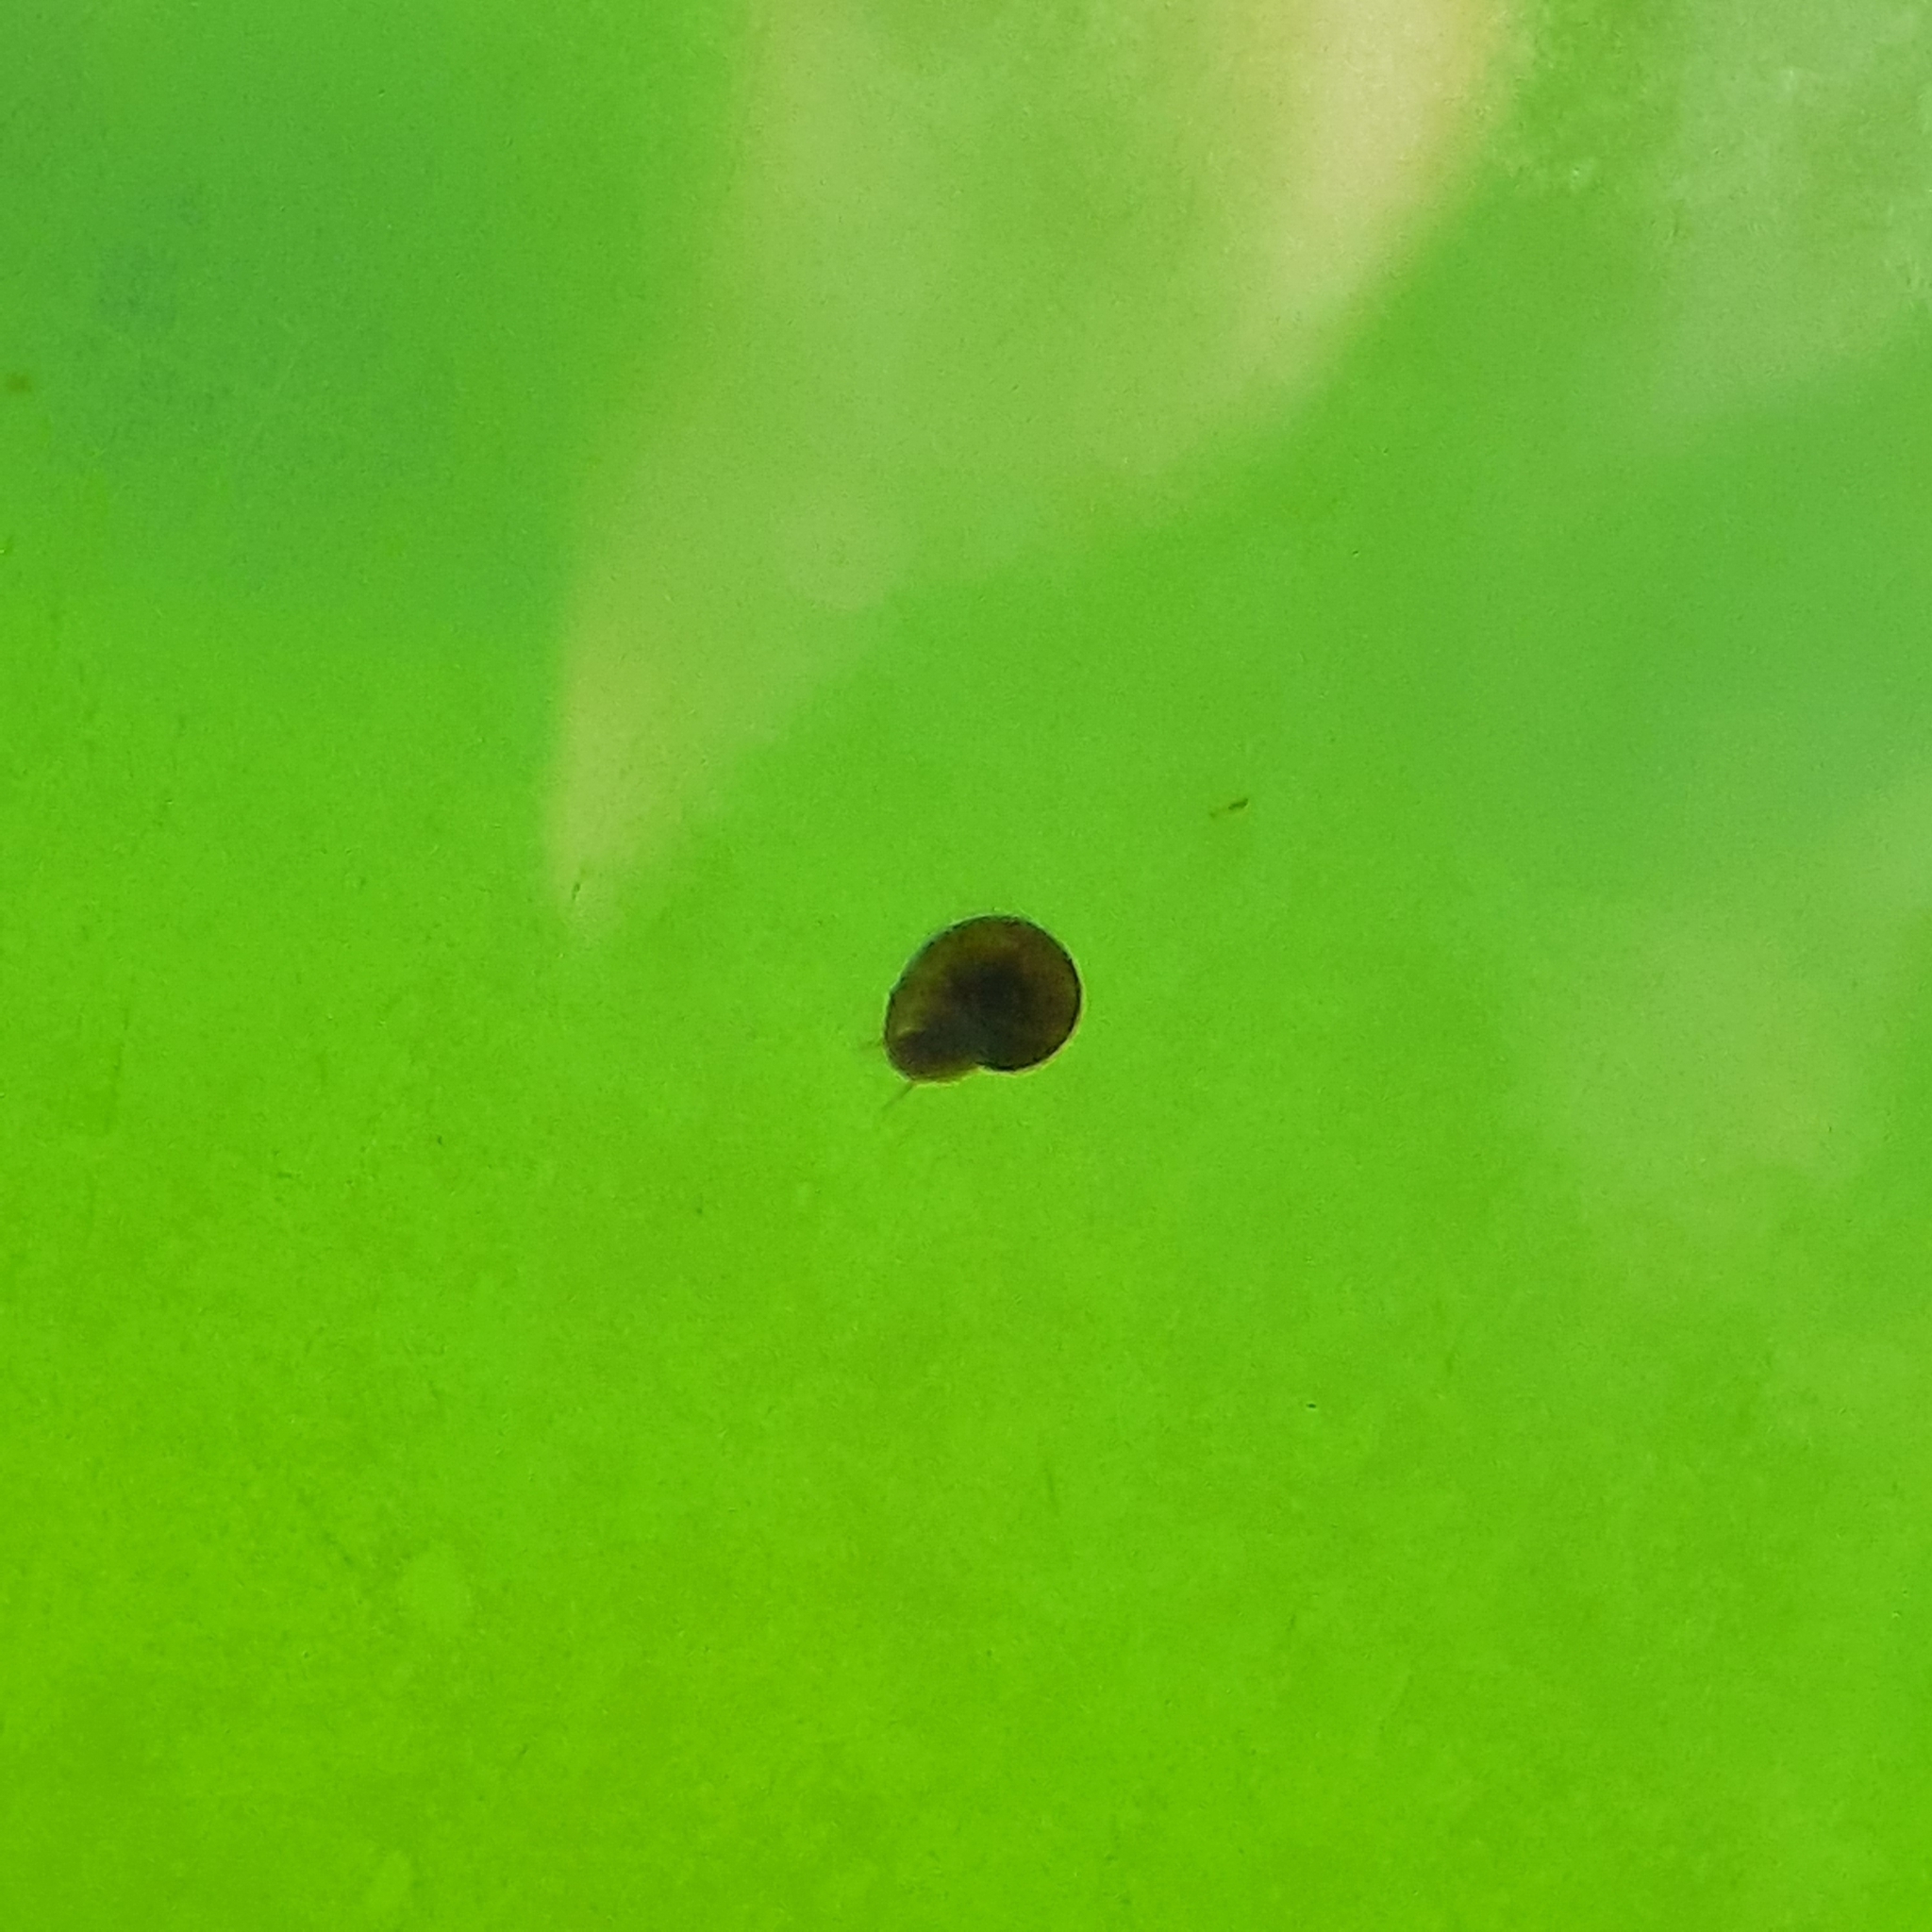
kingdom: Animalia
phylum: Mollusca
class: Gastropoda
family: Planorbidae
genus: Gyraulus
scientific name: Gyraulus
